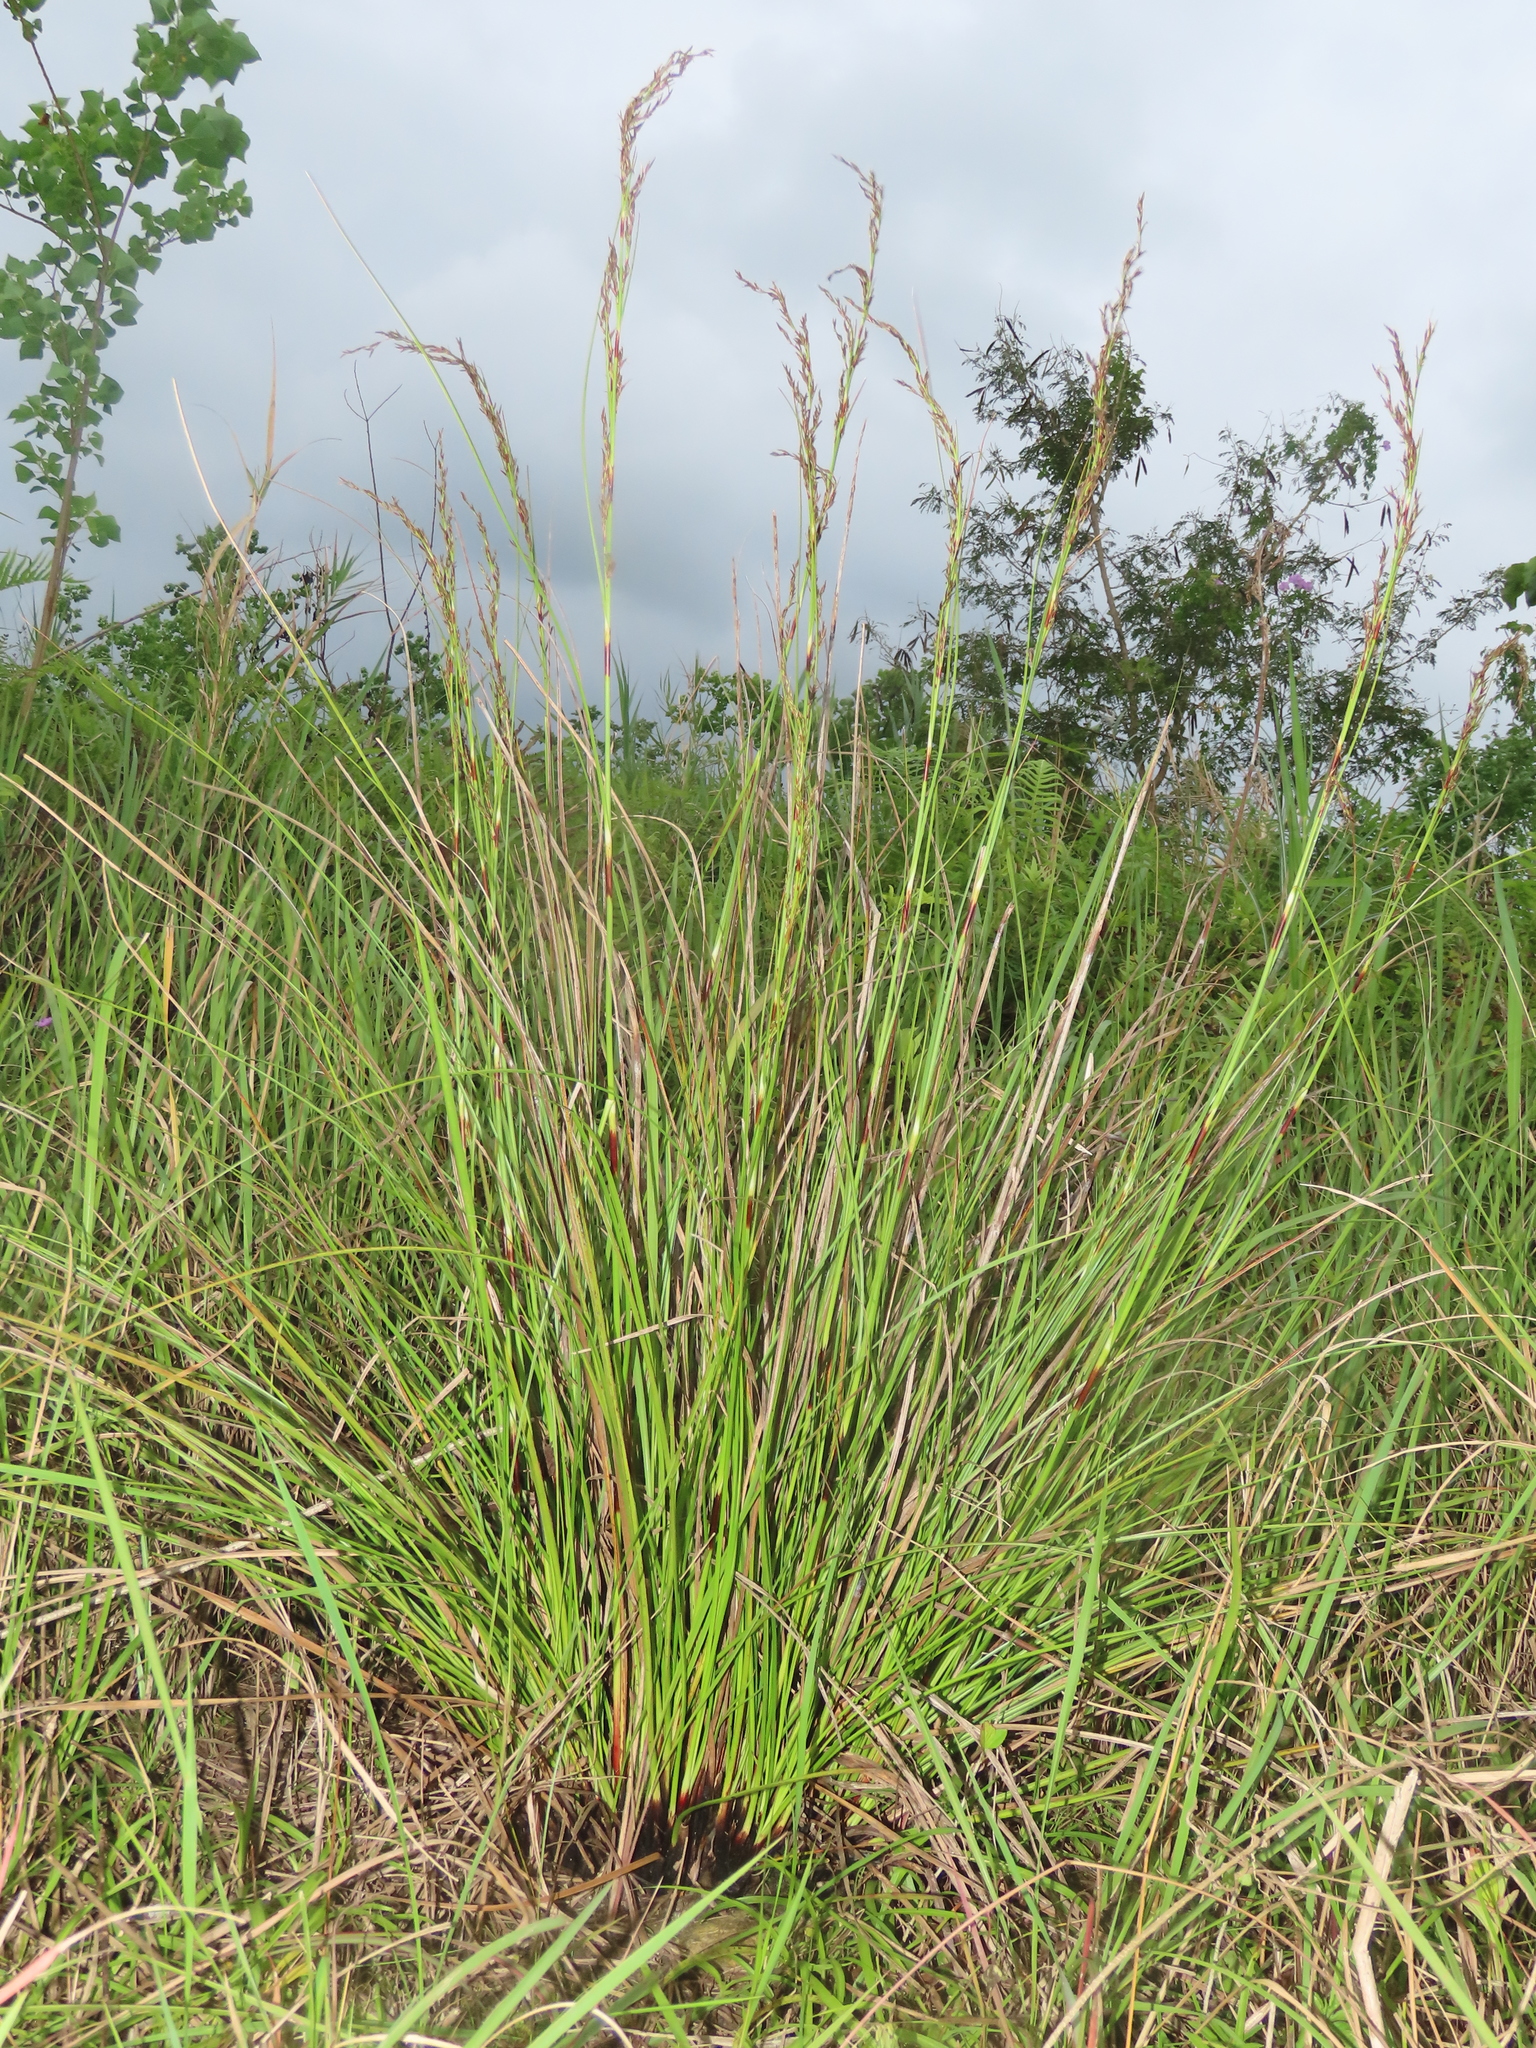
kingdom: Plantae
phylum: Tracheophyta
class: Liliopsida
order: Poales
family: Cyperaceae
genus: Schoenus
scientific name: Schoenus falcatus
